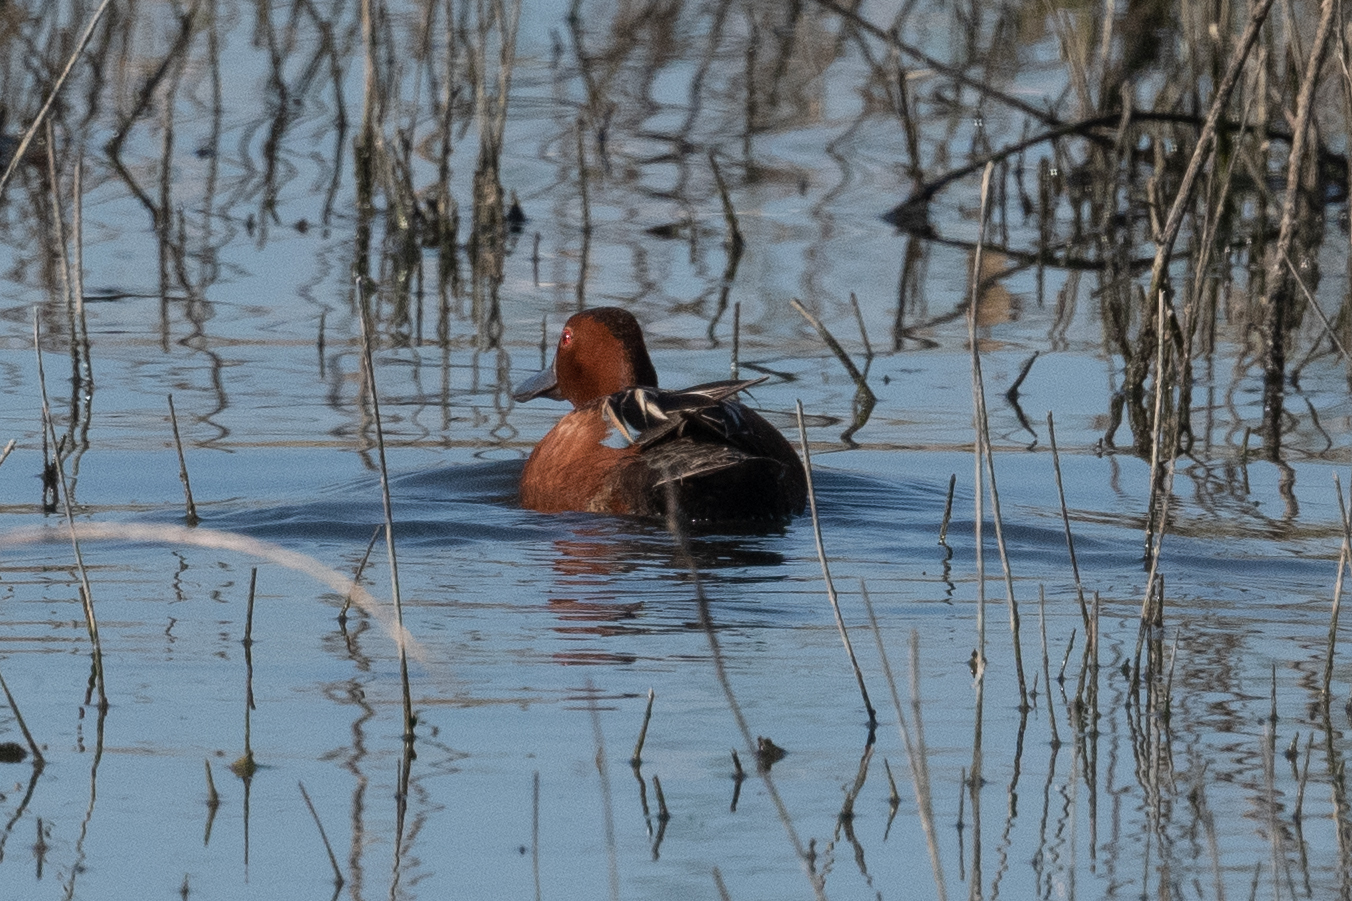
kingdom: Animalia
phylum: Chordata
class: Aves
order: Anseriformes
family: Anatidae
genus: Spatula
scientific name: Spatula cyanoptera
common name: Cinnamon teal
